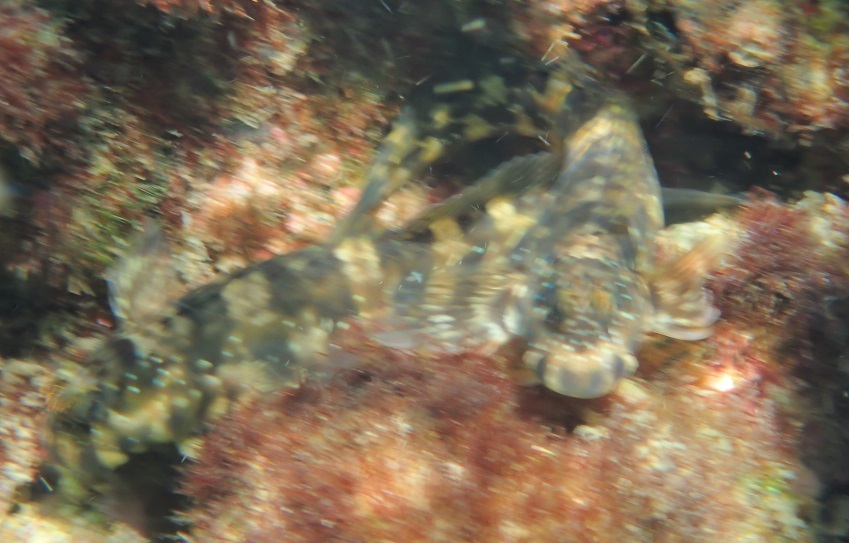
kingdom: Animalia
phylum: Chordata
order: Perciformes
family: Blenniidae
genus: Istiblennius
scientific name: Istiblennius meleagris
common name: Peacock rockskipper
